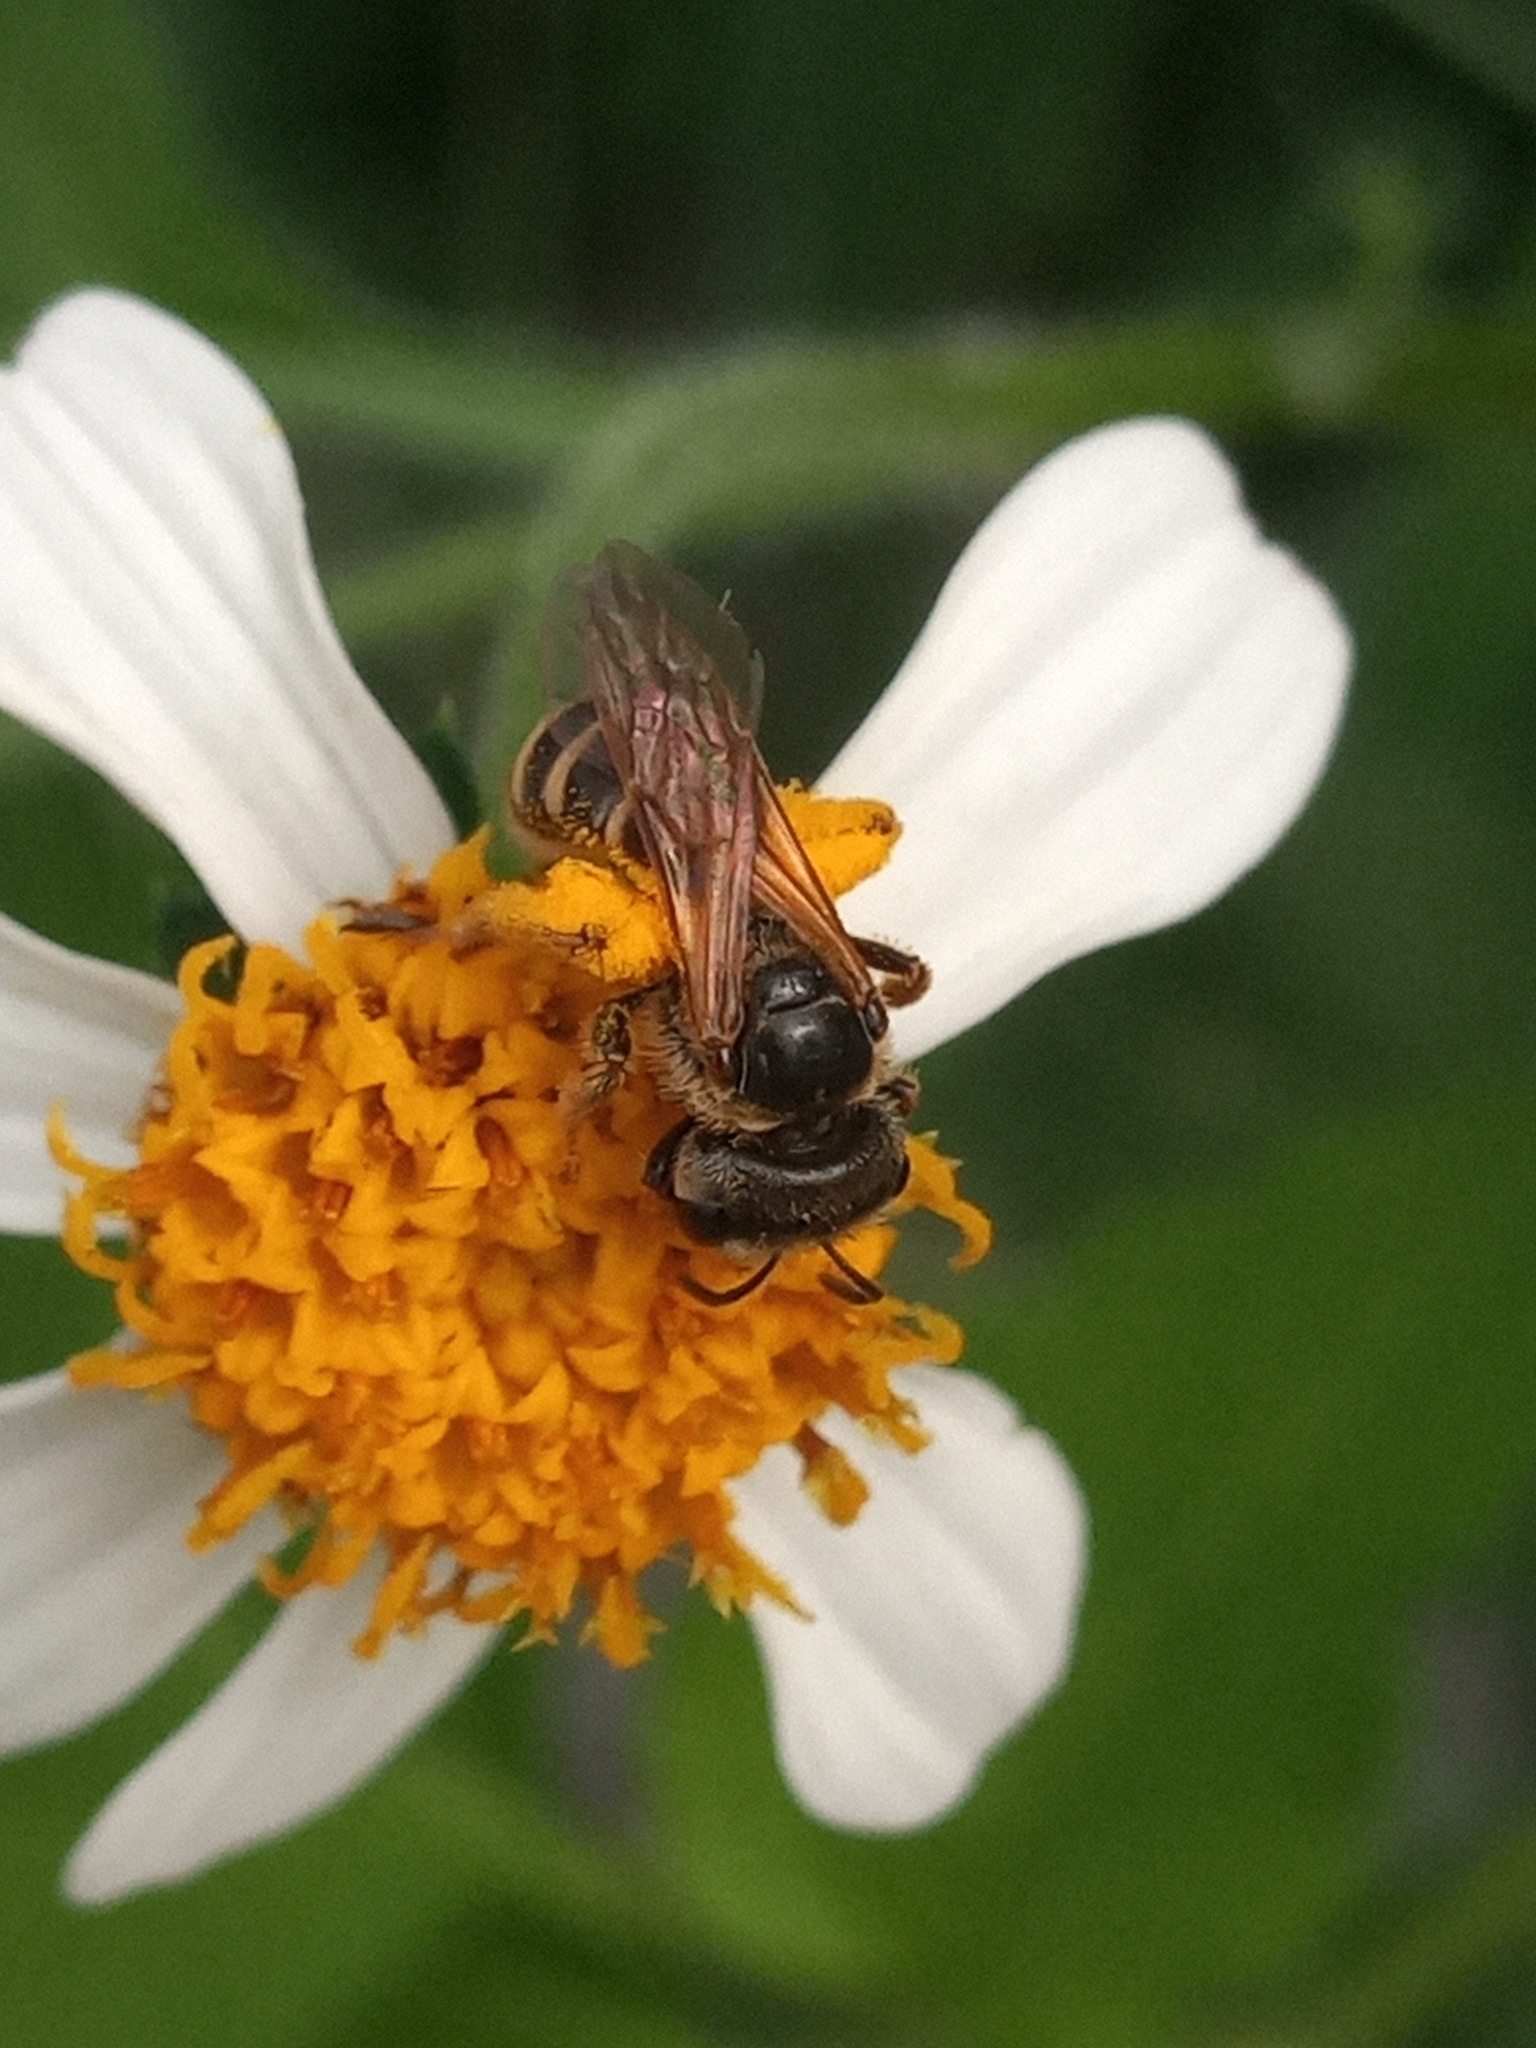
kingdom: Animalia
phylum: Arthropoda
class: Insecta
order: Hymenoptera
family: Halictidae
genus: Halictus
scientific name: Halictus ligatus
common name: Ligated furrow bee
